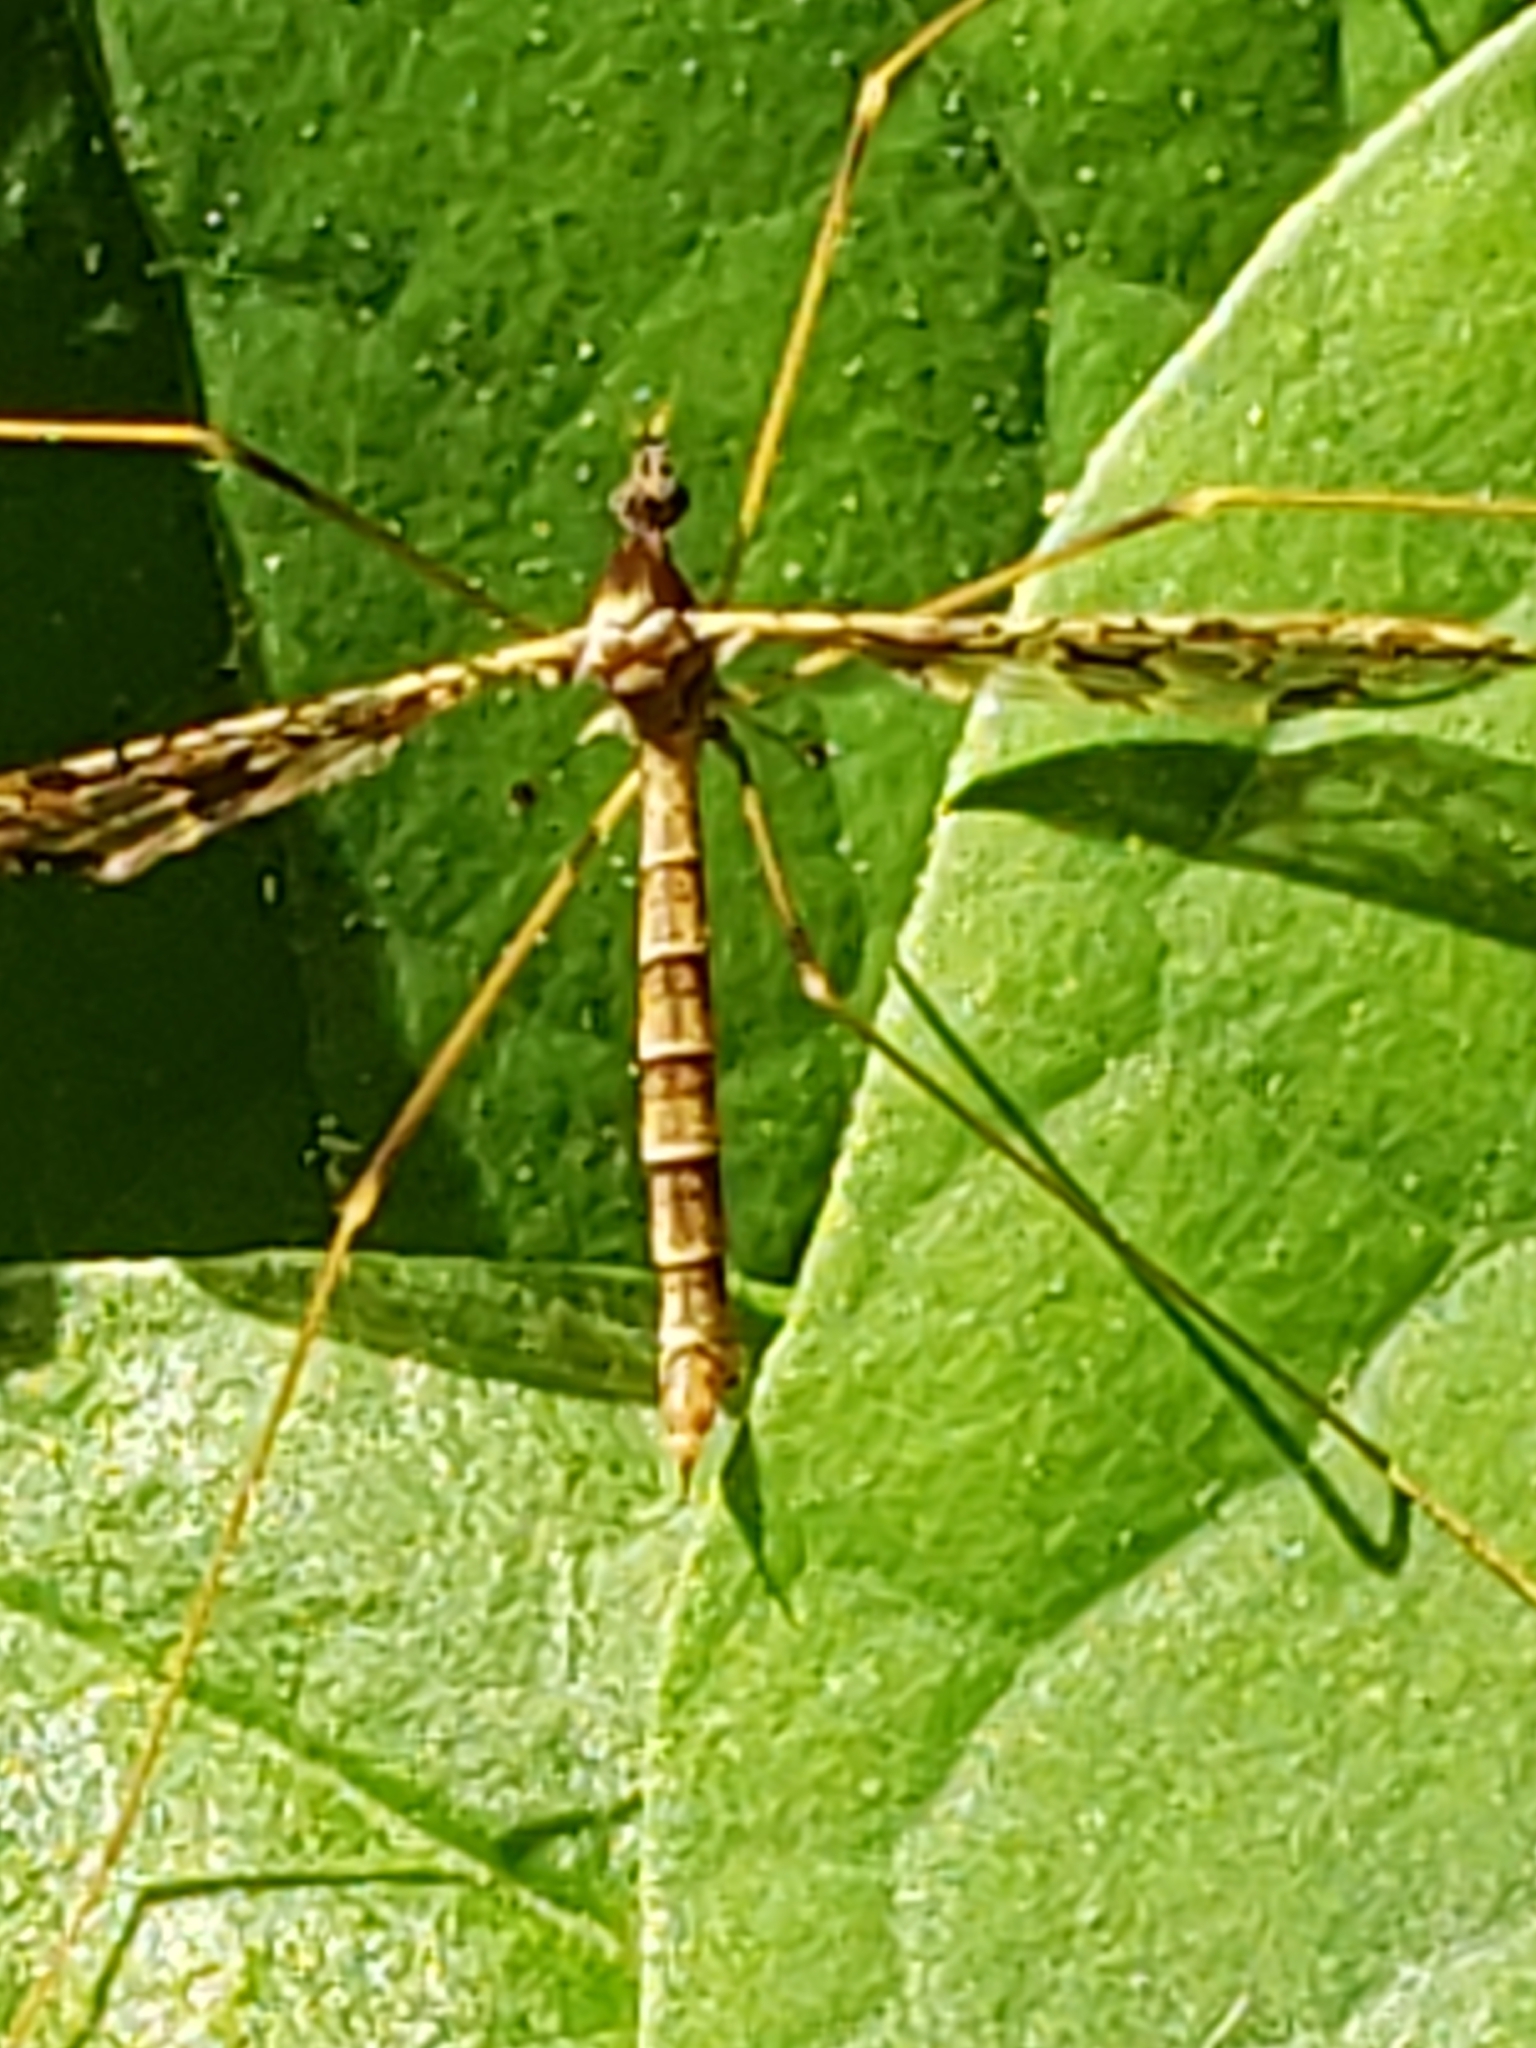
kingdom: Animalia
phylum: Arthropoda
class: Insecta
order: Diptera
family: Limoniidae
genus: Epiphragma
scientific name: Epiphragma solatrix
